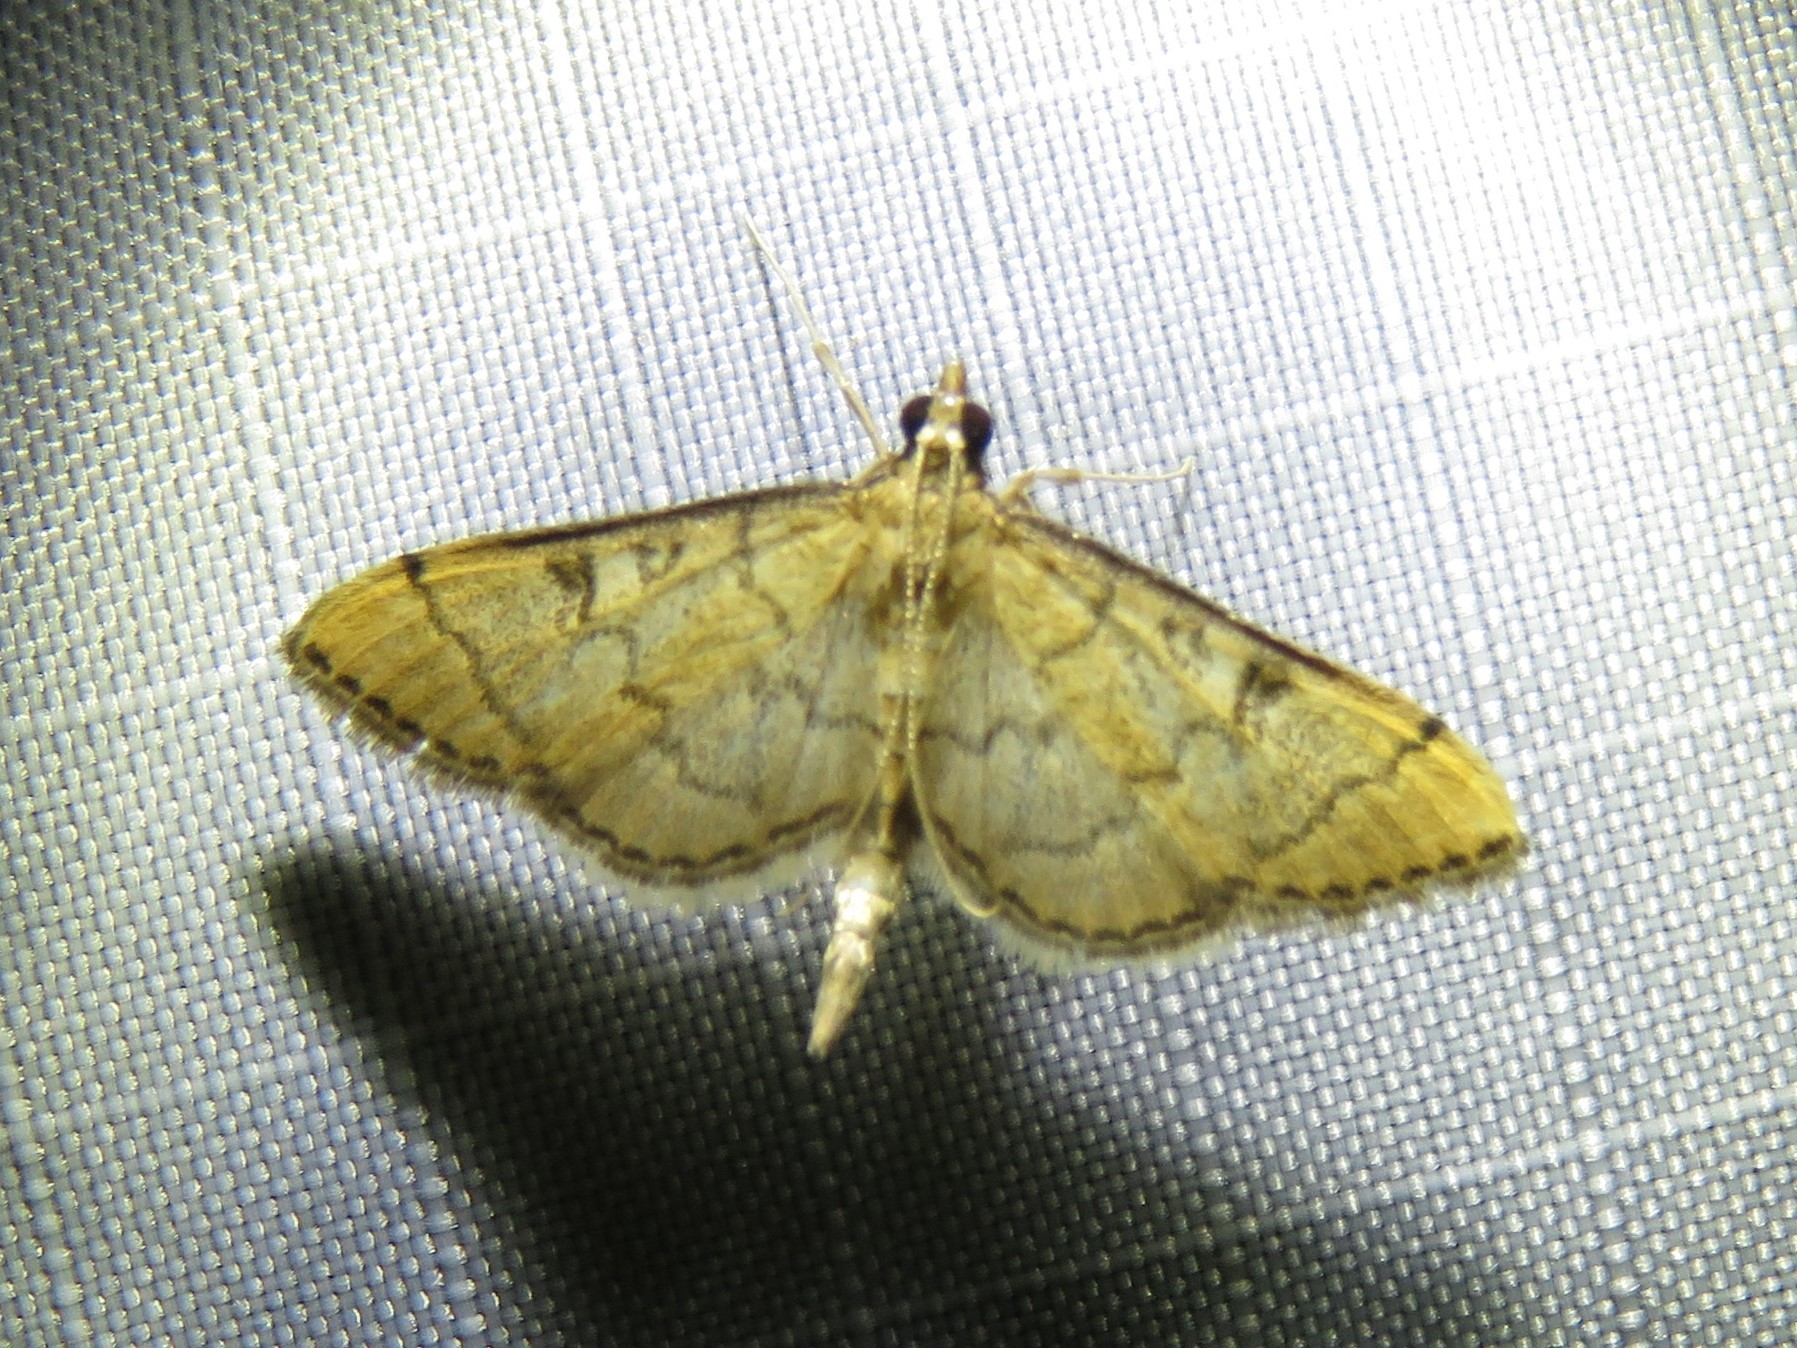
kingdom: Animalia
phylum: Arthropoda
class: Insecta
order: Lepidoptera
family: Crambidae
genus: Lamprosema
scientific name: Lamprosema Blepharomastix ranalis
